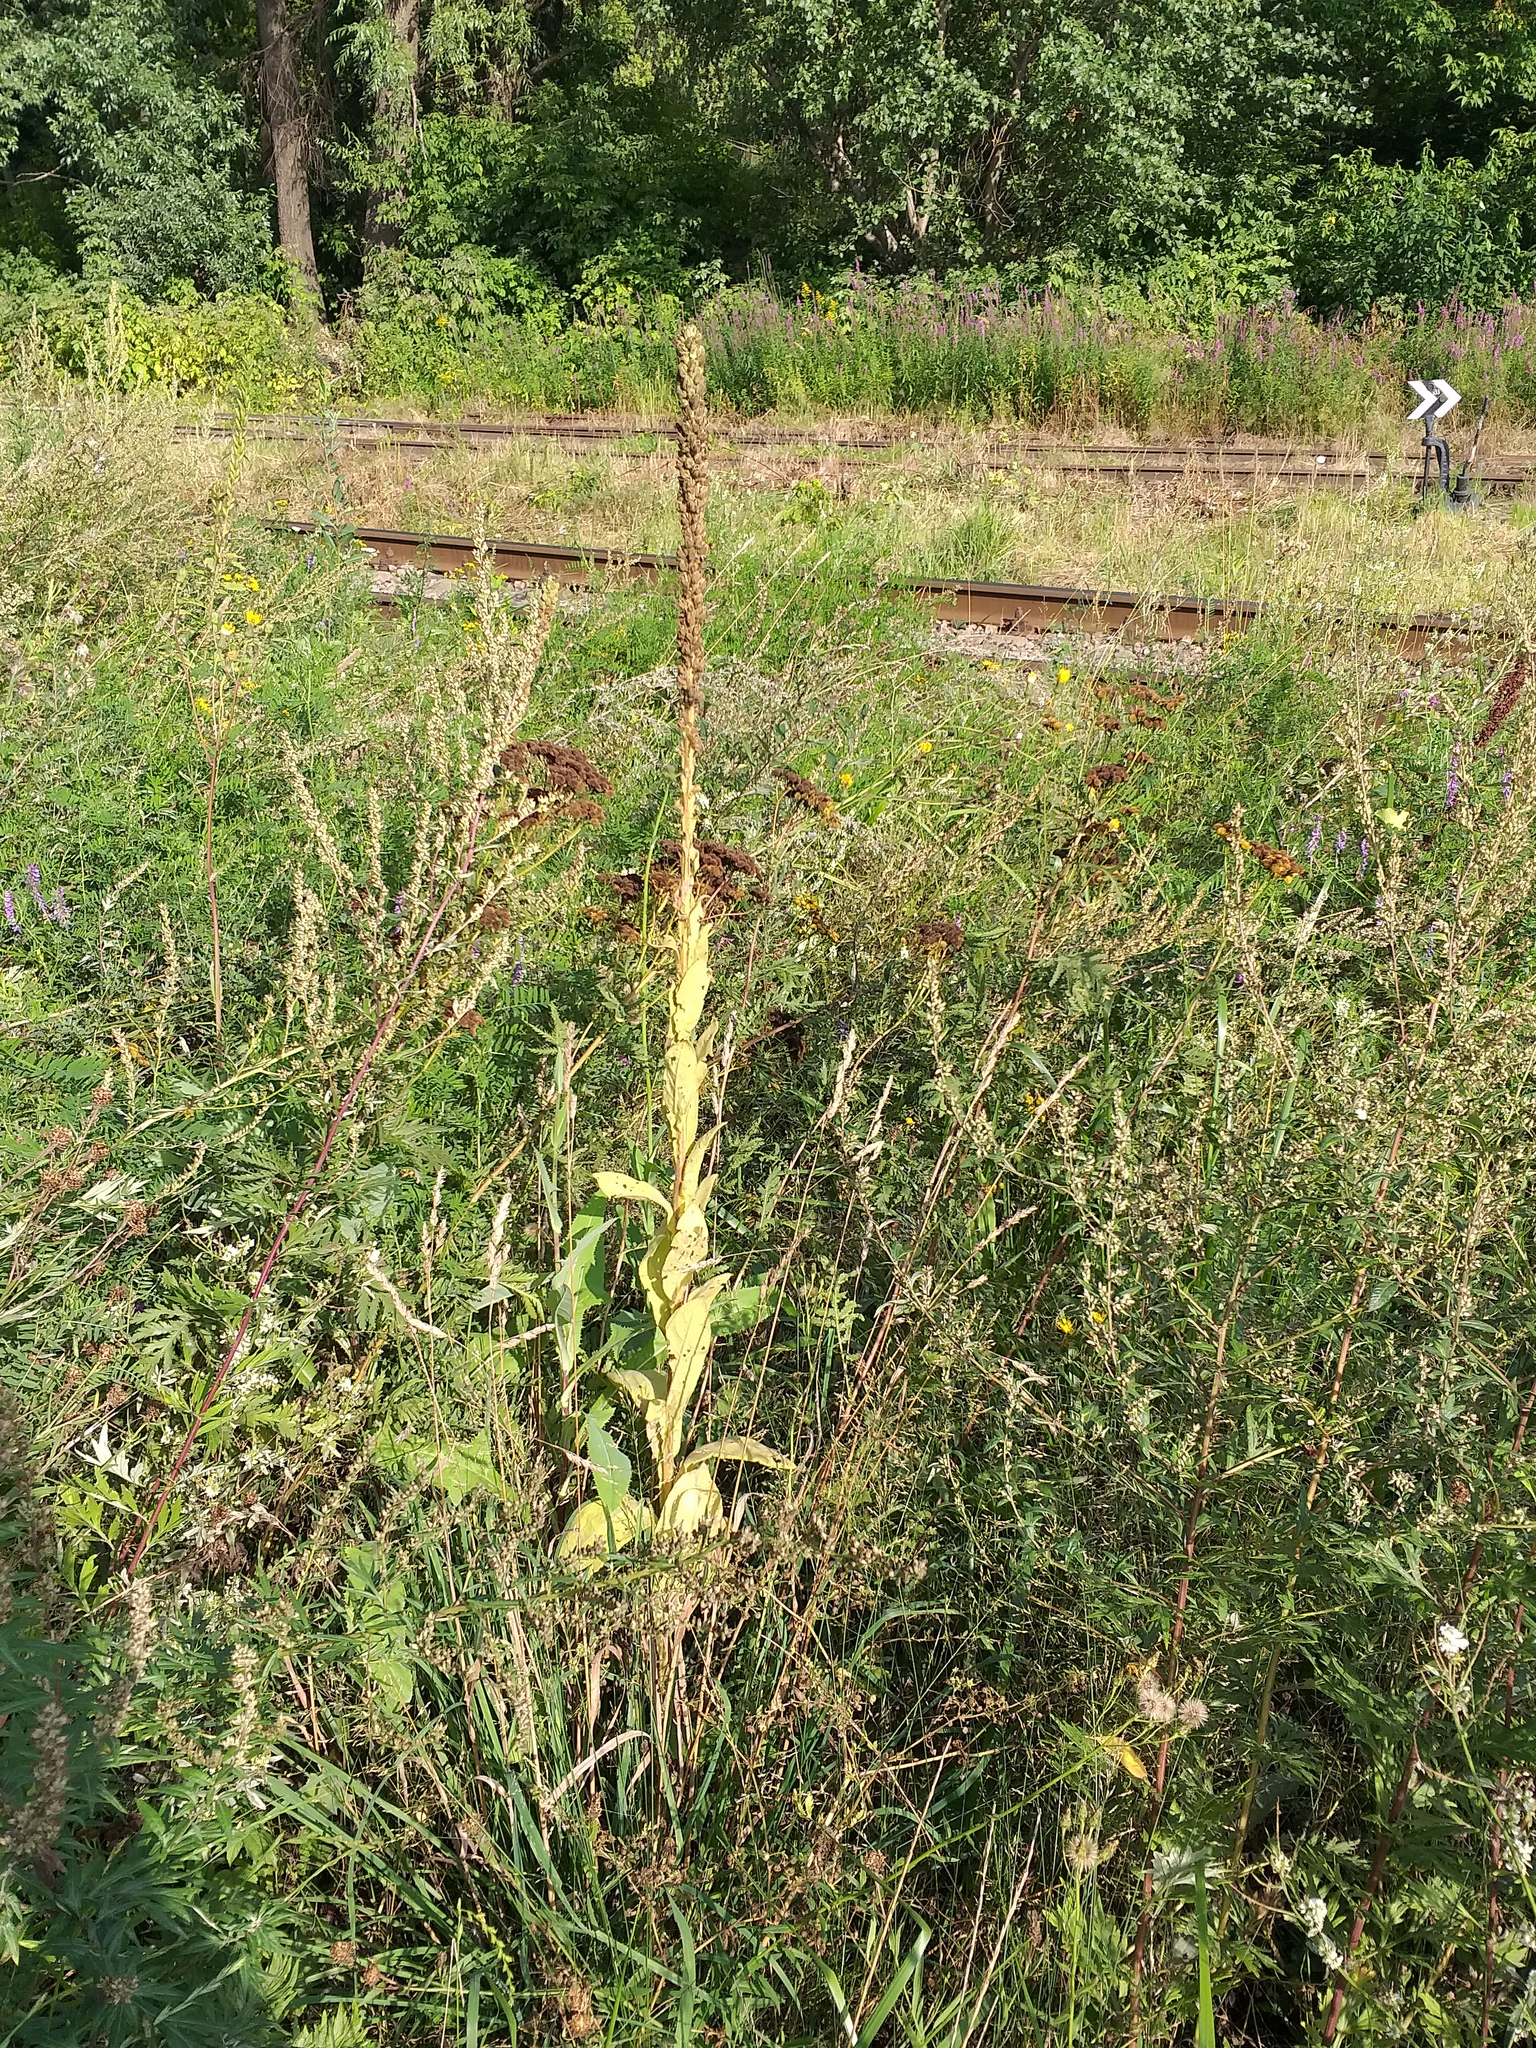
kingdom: Plantae
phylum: Tracheophyta
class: Magnoliopsida
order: Lamiales
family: Scrophulariaceae
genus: Verbascum
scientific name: Verbascum thapsus
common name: Common mullein
